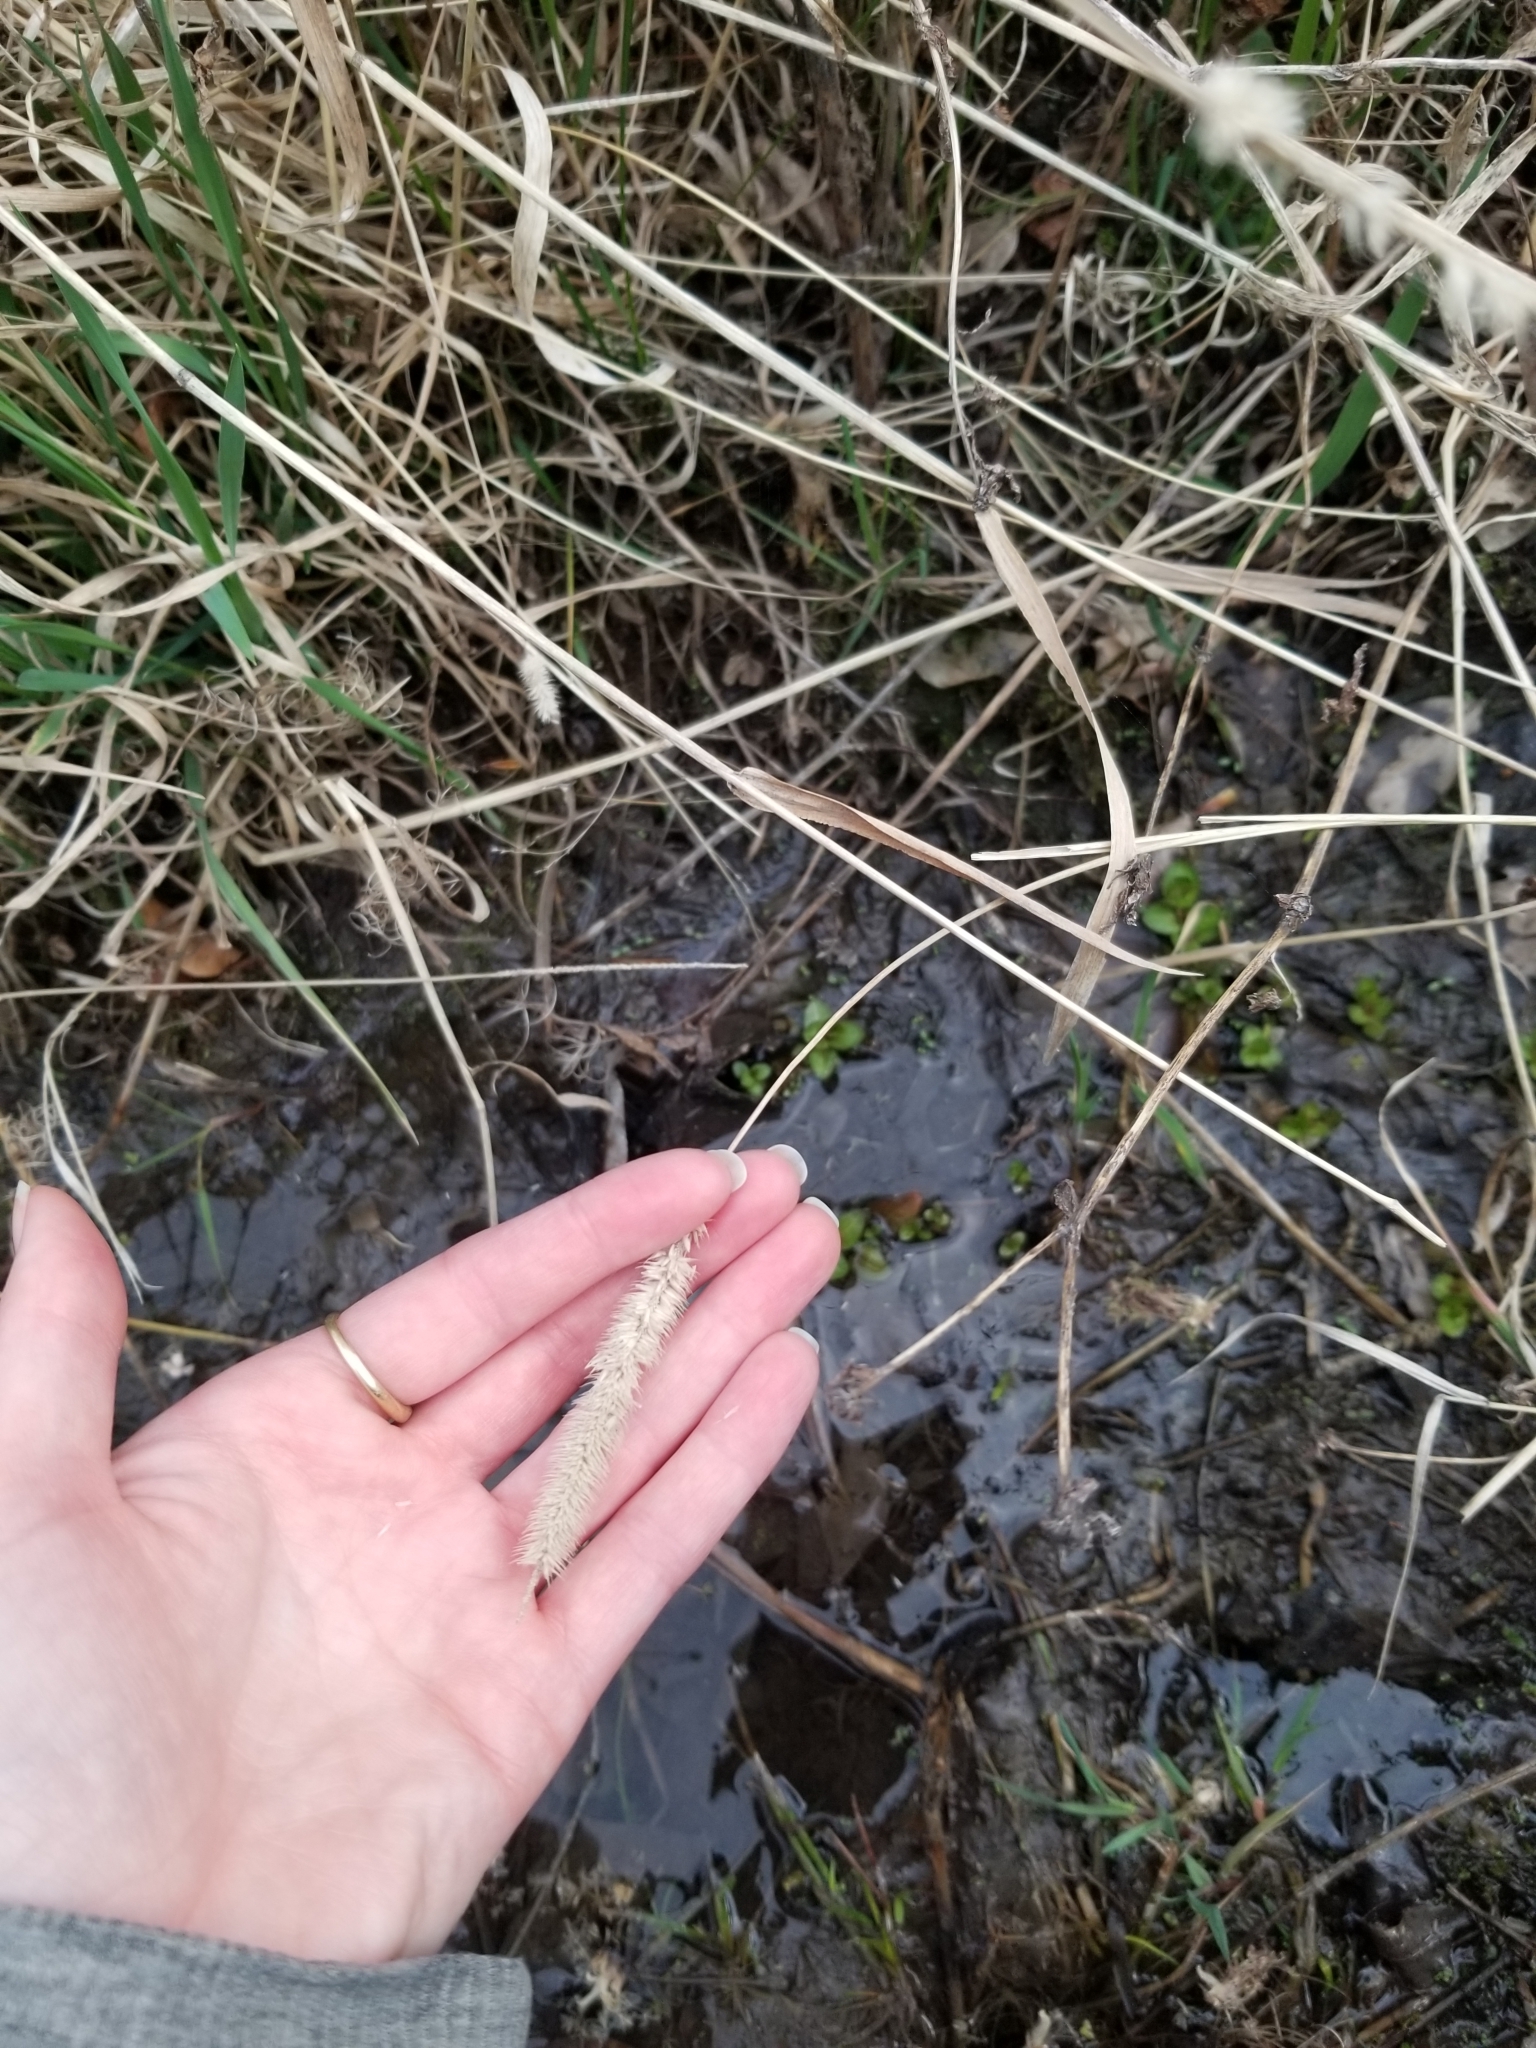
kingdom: Plantae
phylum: Tracheophyta
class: Liliopsida
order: Poales
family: Poaceae
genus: Phleum
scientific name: Phleum pratense
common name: Timothy grass
